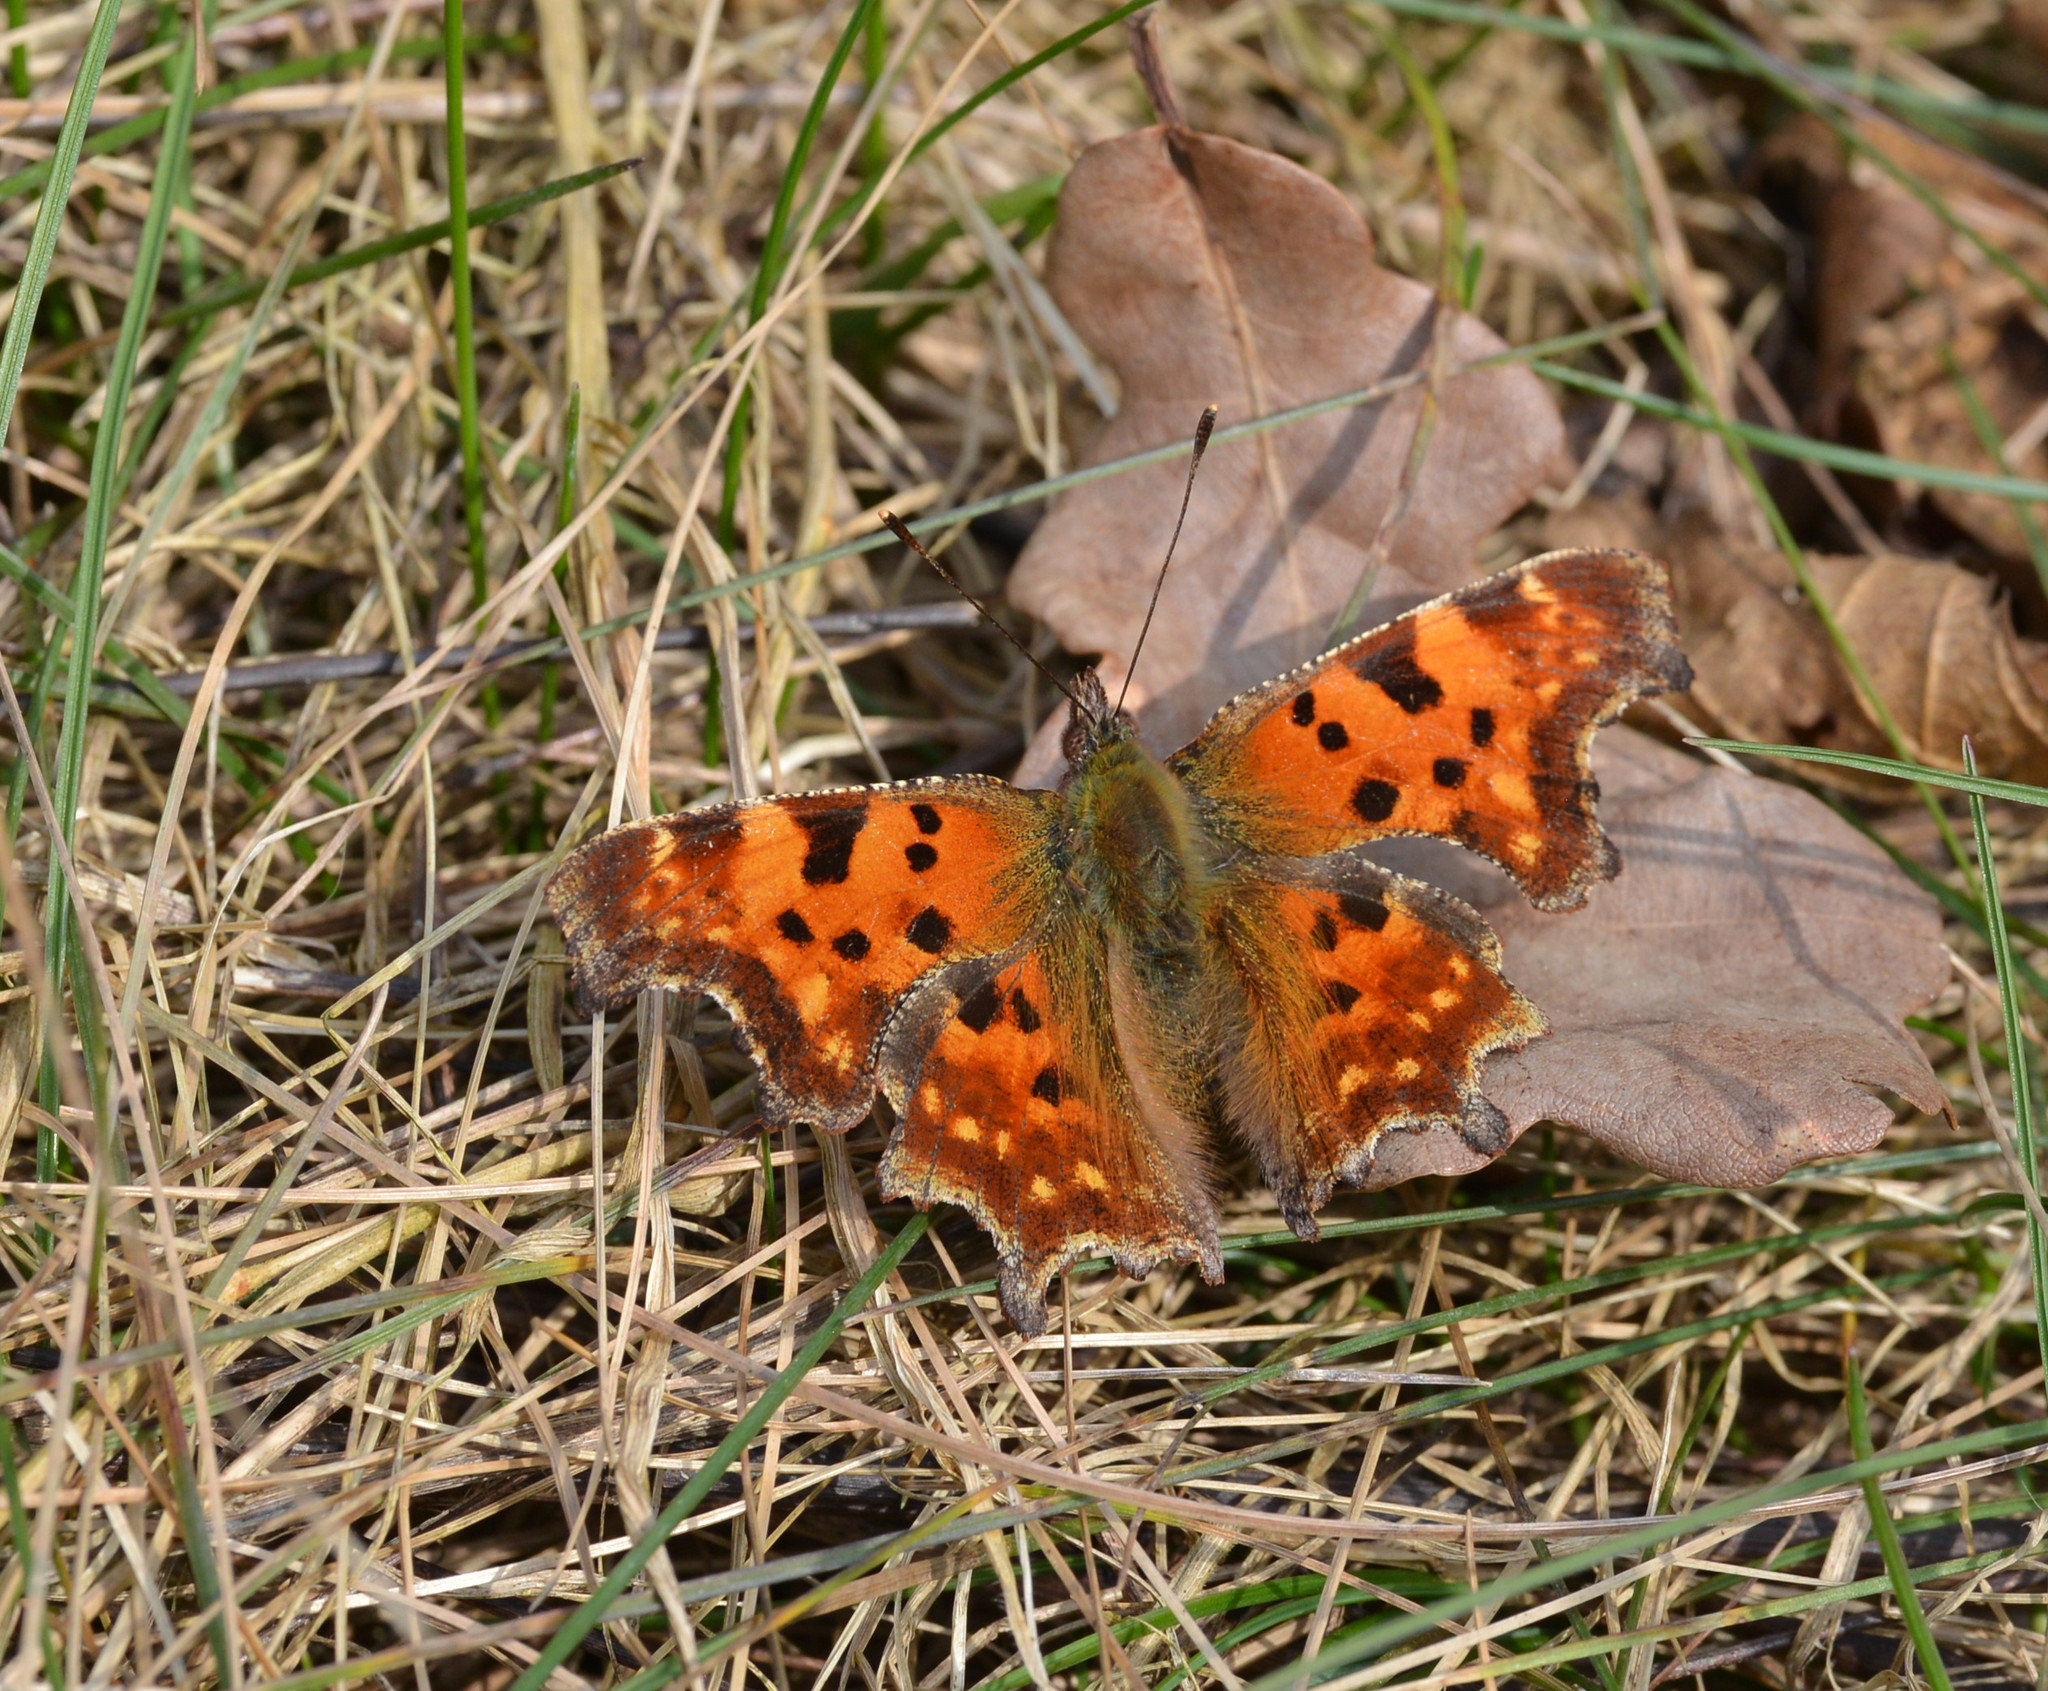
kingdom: Animalia
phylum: Arthropoda
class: Insecta
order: Lepidoptera
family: Nymphalidae
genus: Polygonia
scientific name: Polygonia c-album
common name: Comma
